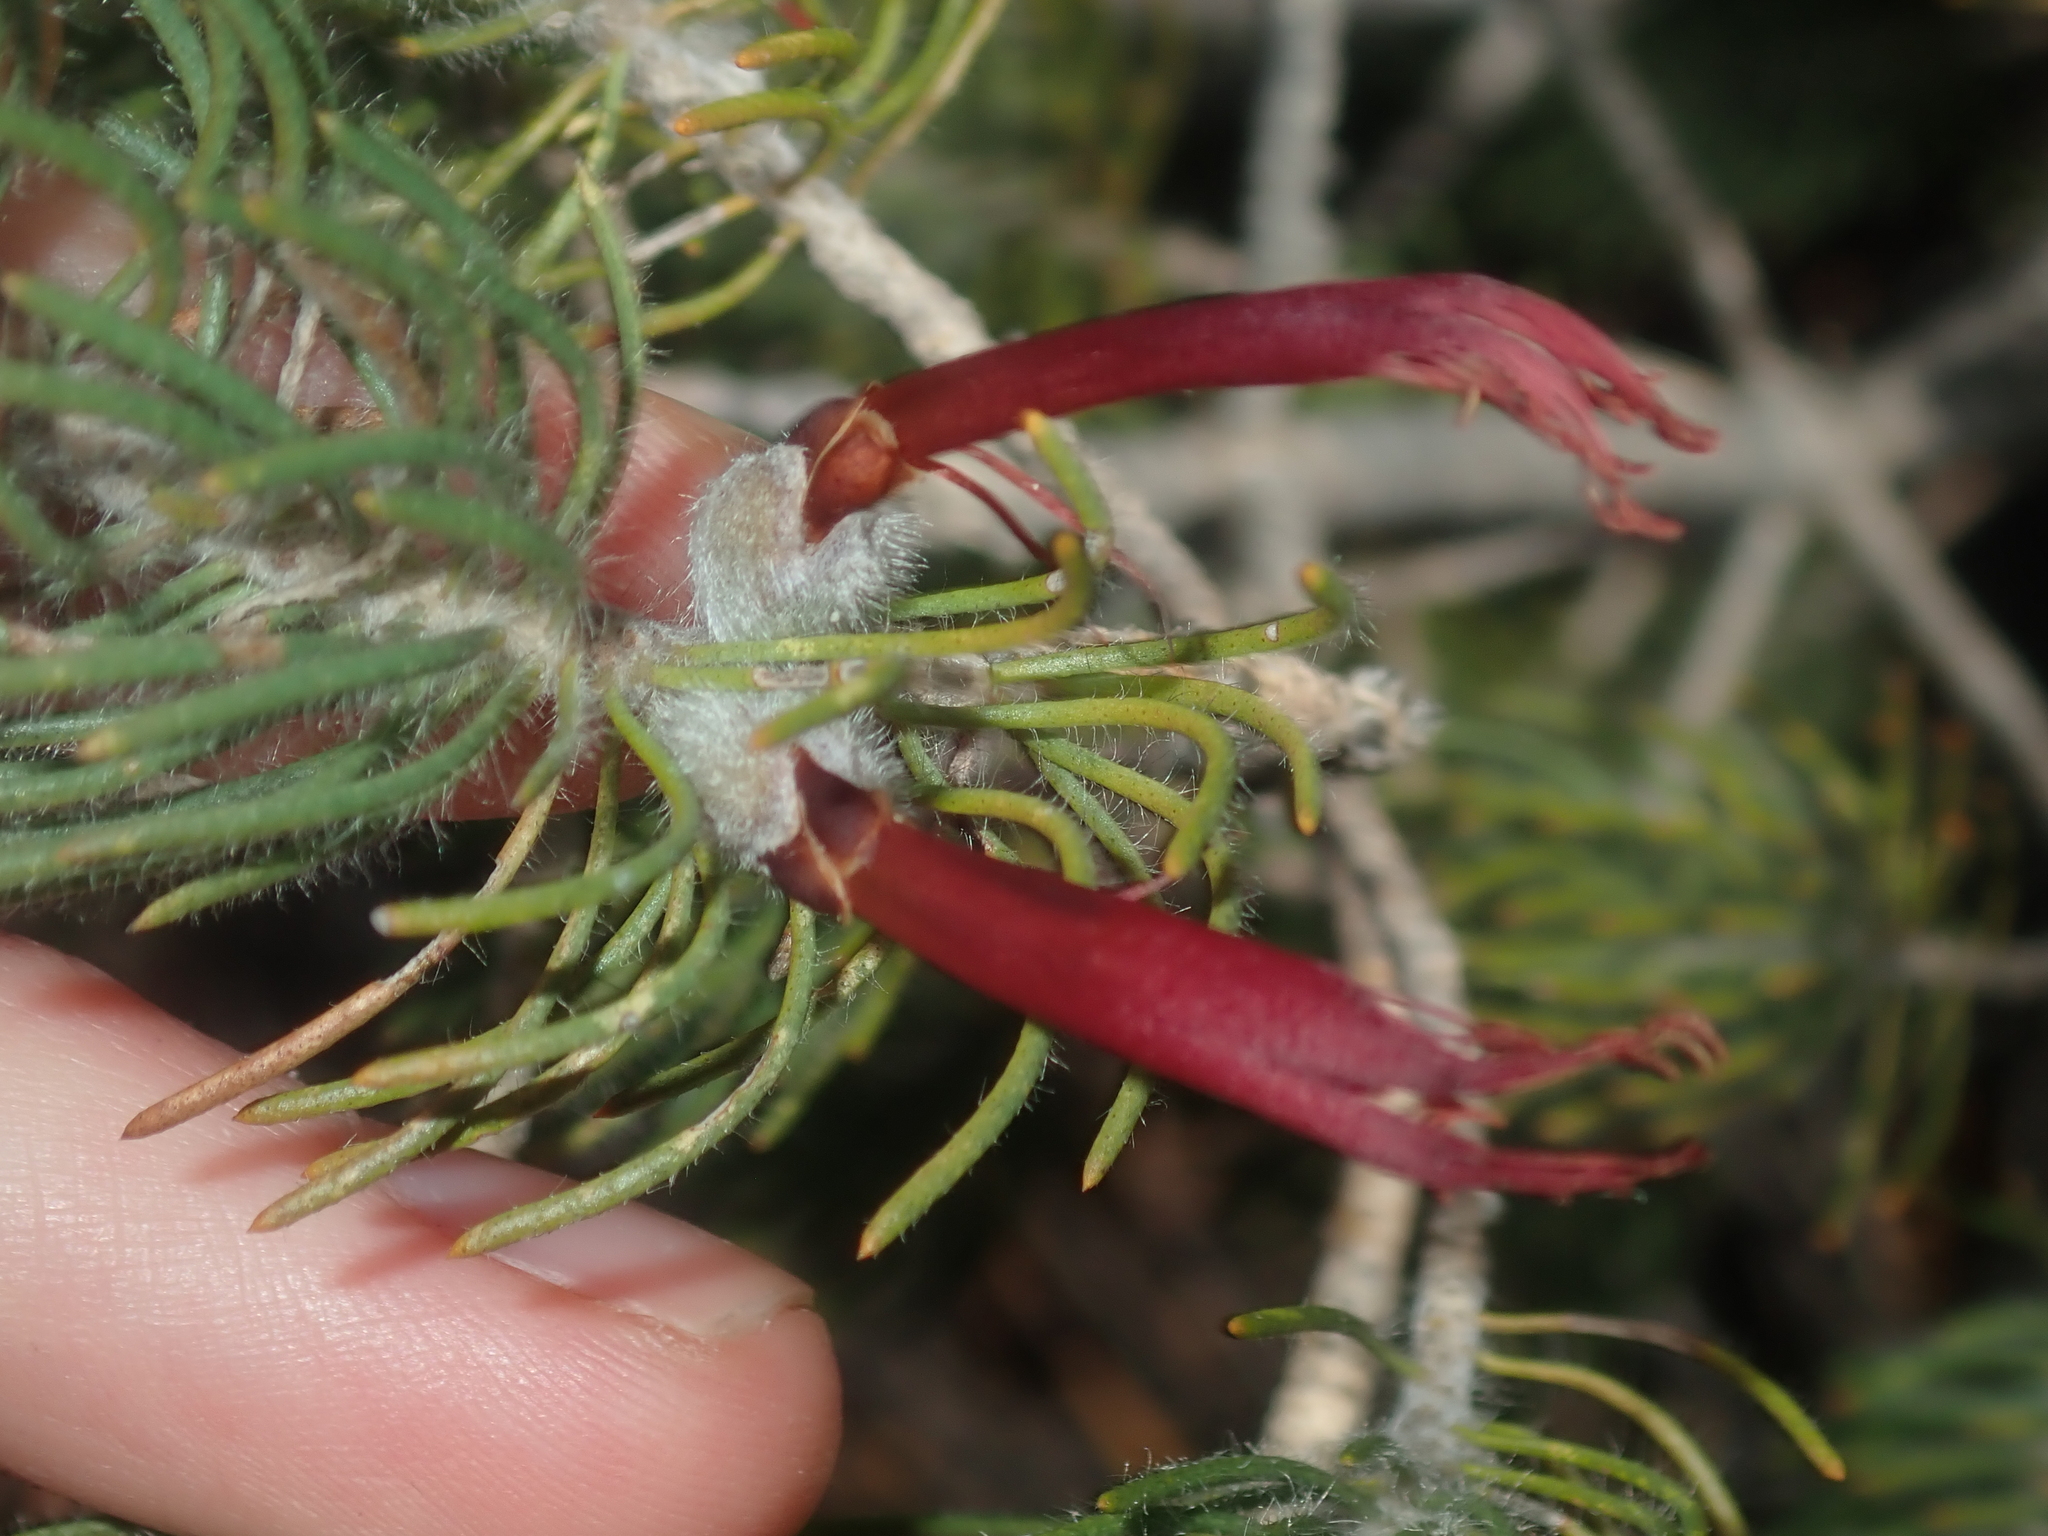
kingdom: Plantae
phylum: Tracheophyta
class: Magnoliopsida
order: Myrtales
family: Myrtaceae
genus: Melaleuca
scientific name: Melaleuca cruenta
